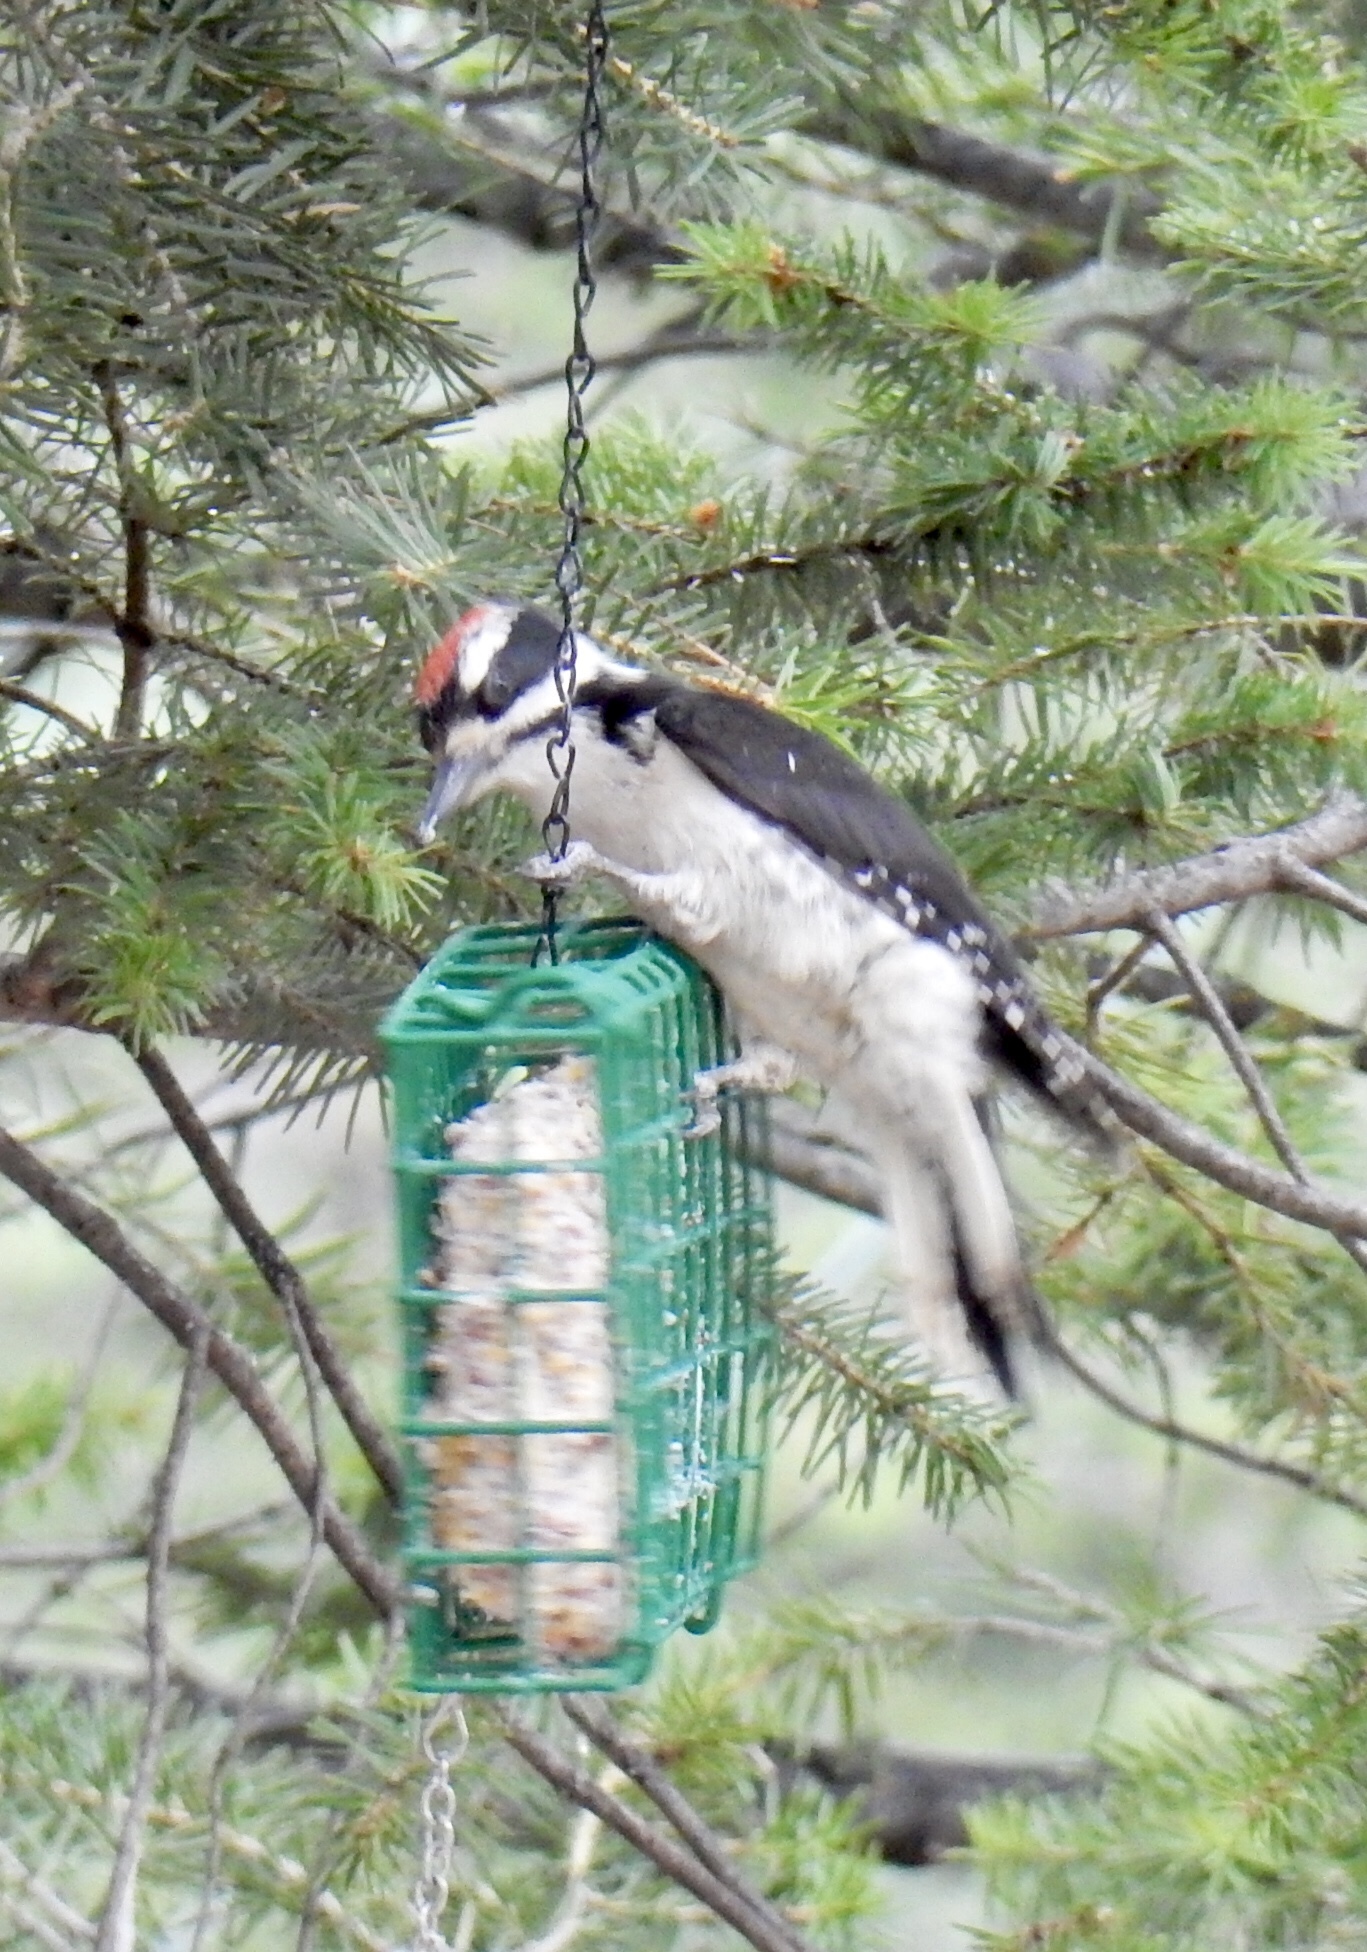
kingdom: Animalia
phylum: Chordata
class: Aves
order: Piciformes
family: Picidae
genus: Leuconotopicus
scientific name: Leuconotopicus villosus
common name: Hairy woodpecker
